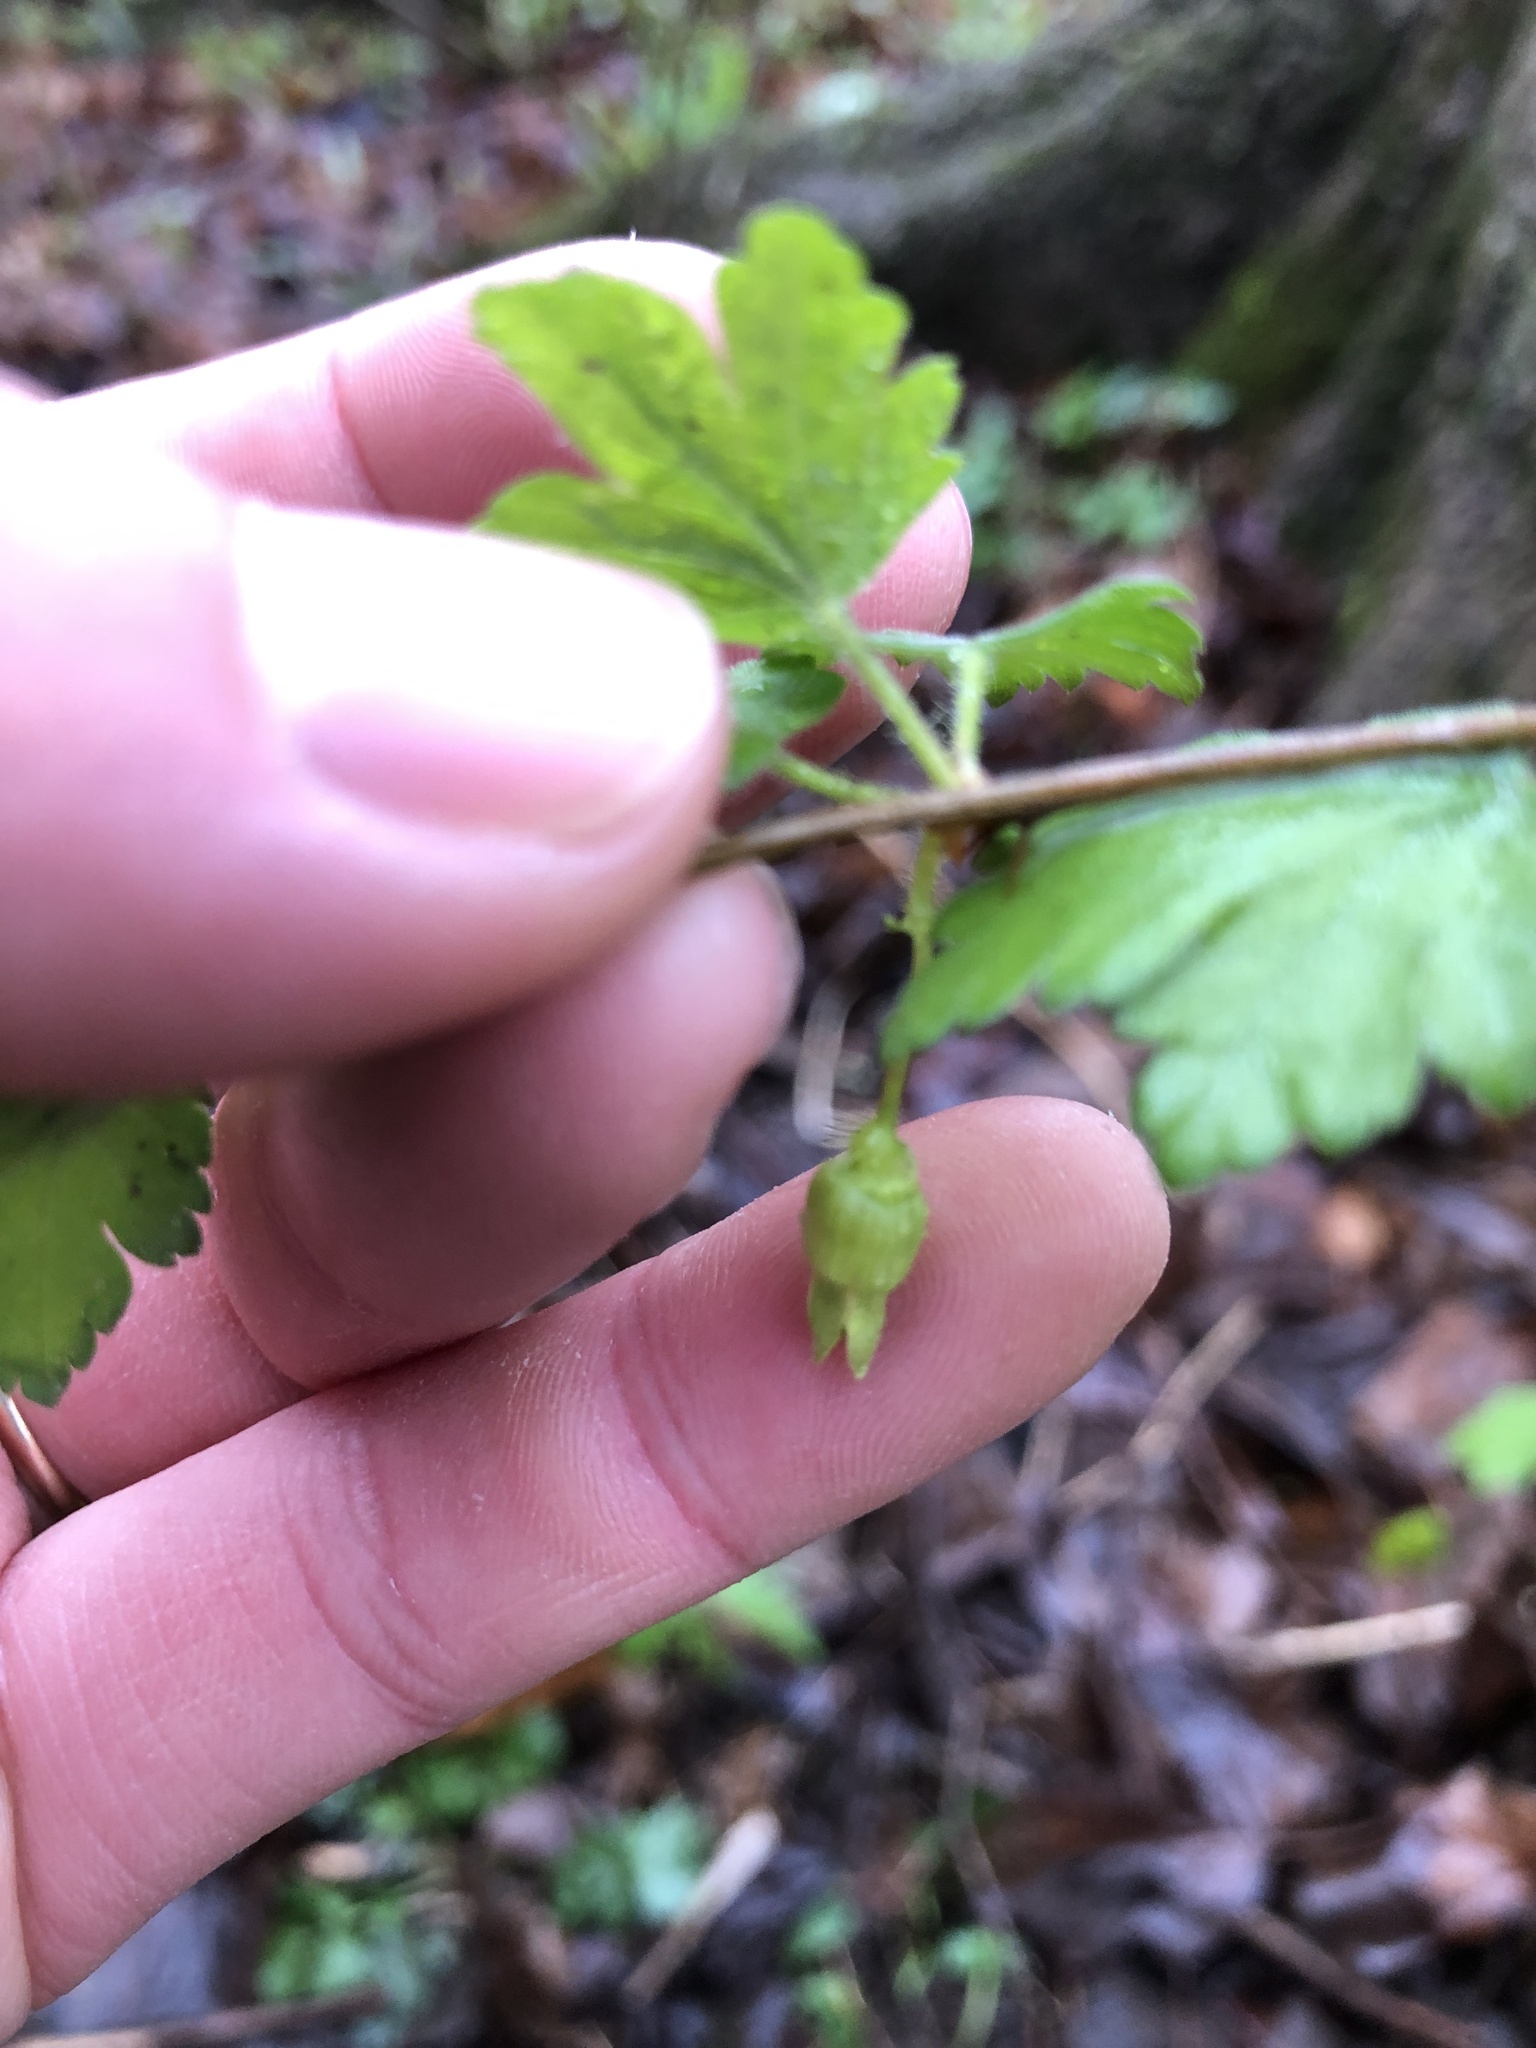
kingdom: Plantae
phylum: Tracheophyta
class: Magnoliopsida
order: Saxifragales
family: Grossulariaceae
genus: Ribes
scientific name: Ribes cynosbati
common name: American gooseberry
